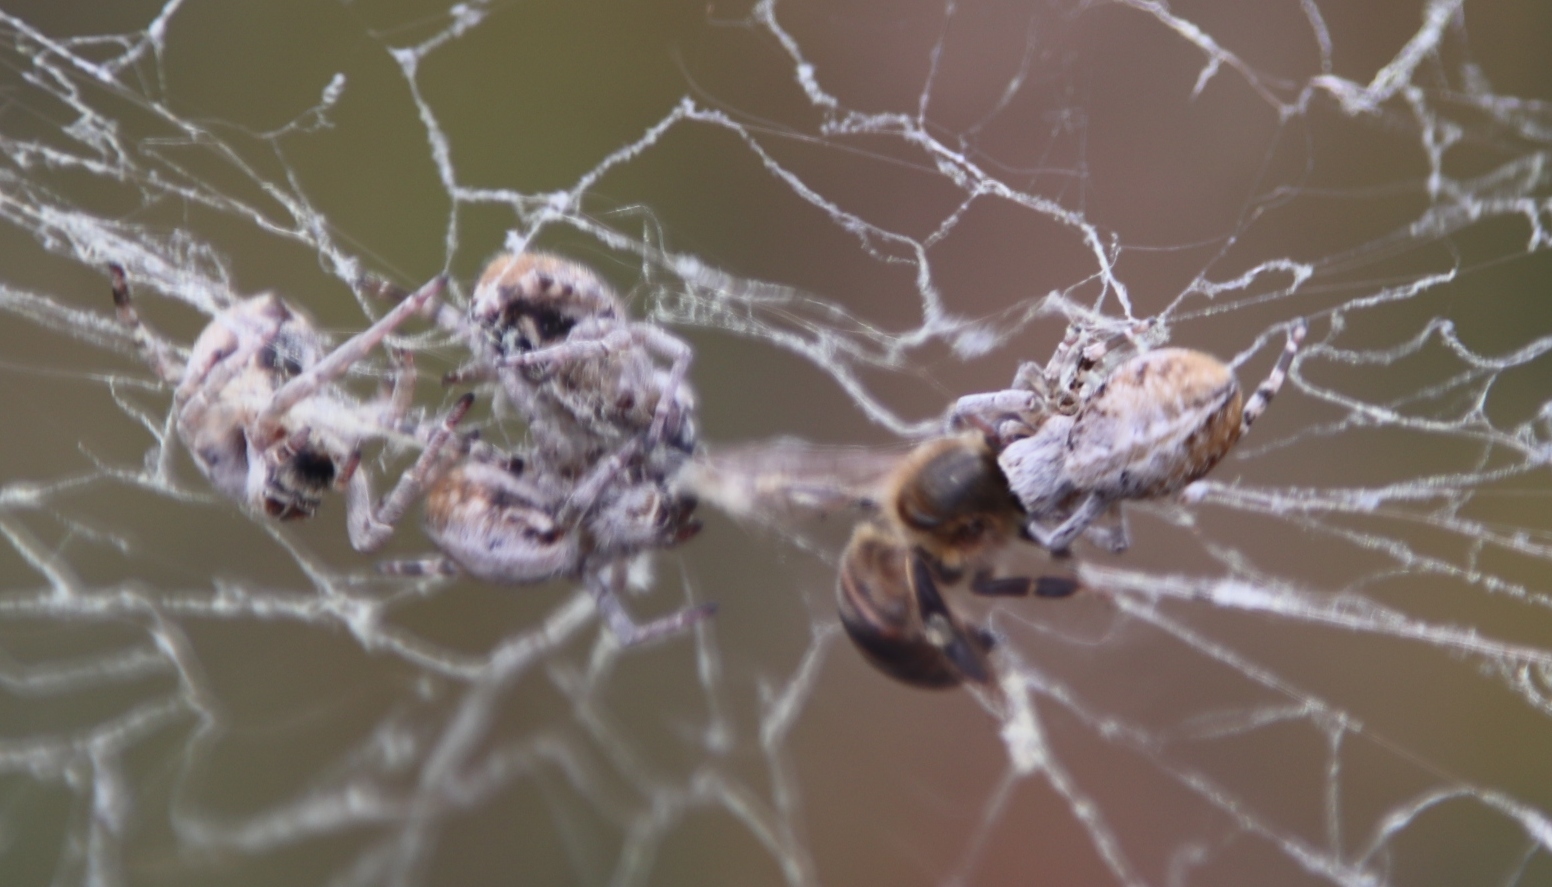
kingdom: Animalia
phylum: Arthropoda
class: Insecta
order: Hymenoptera
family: Apidae
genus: Apis
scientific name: Apis mellifera
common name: Honey bee
